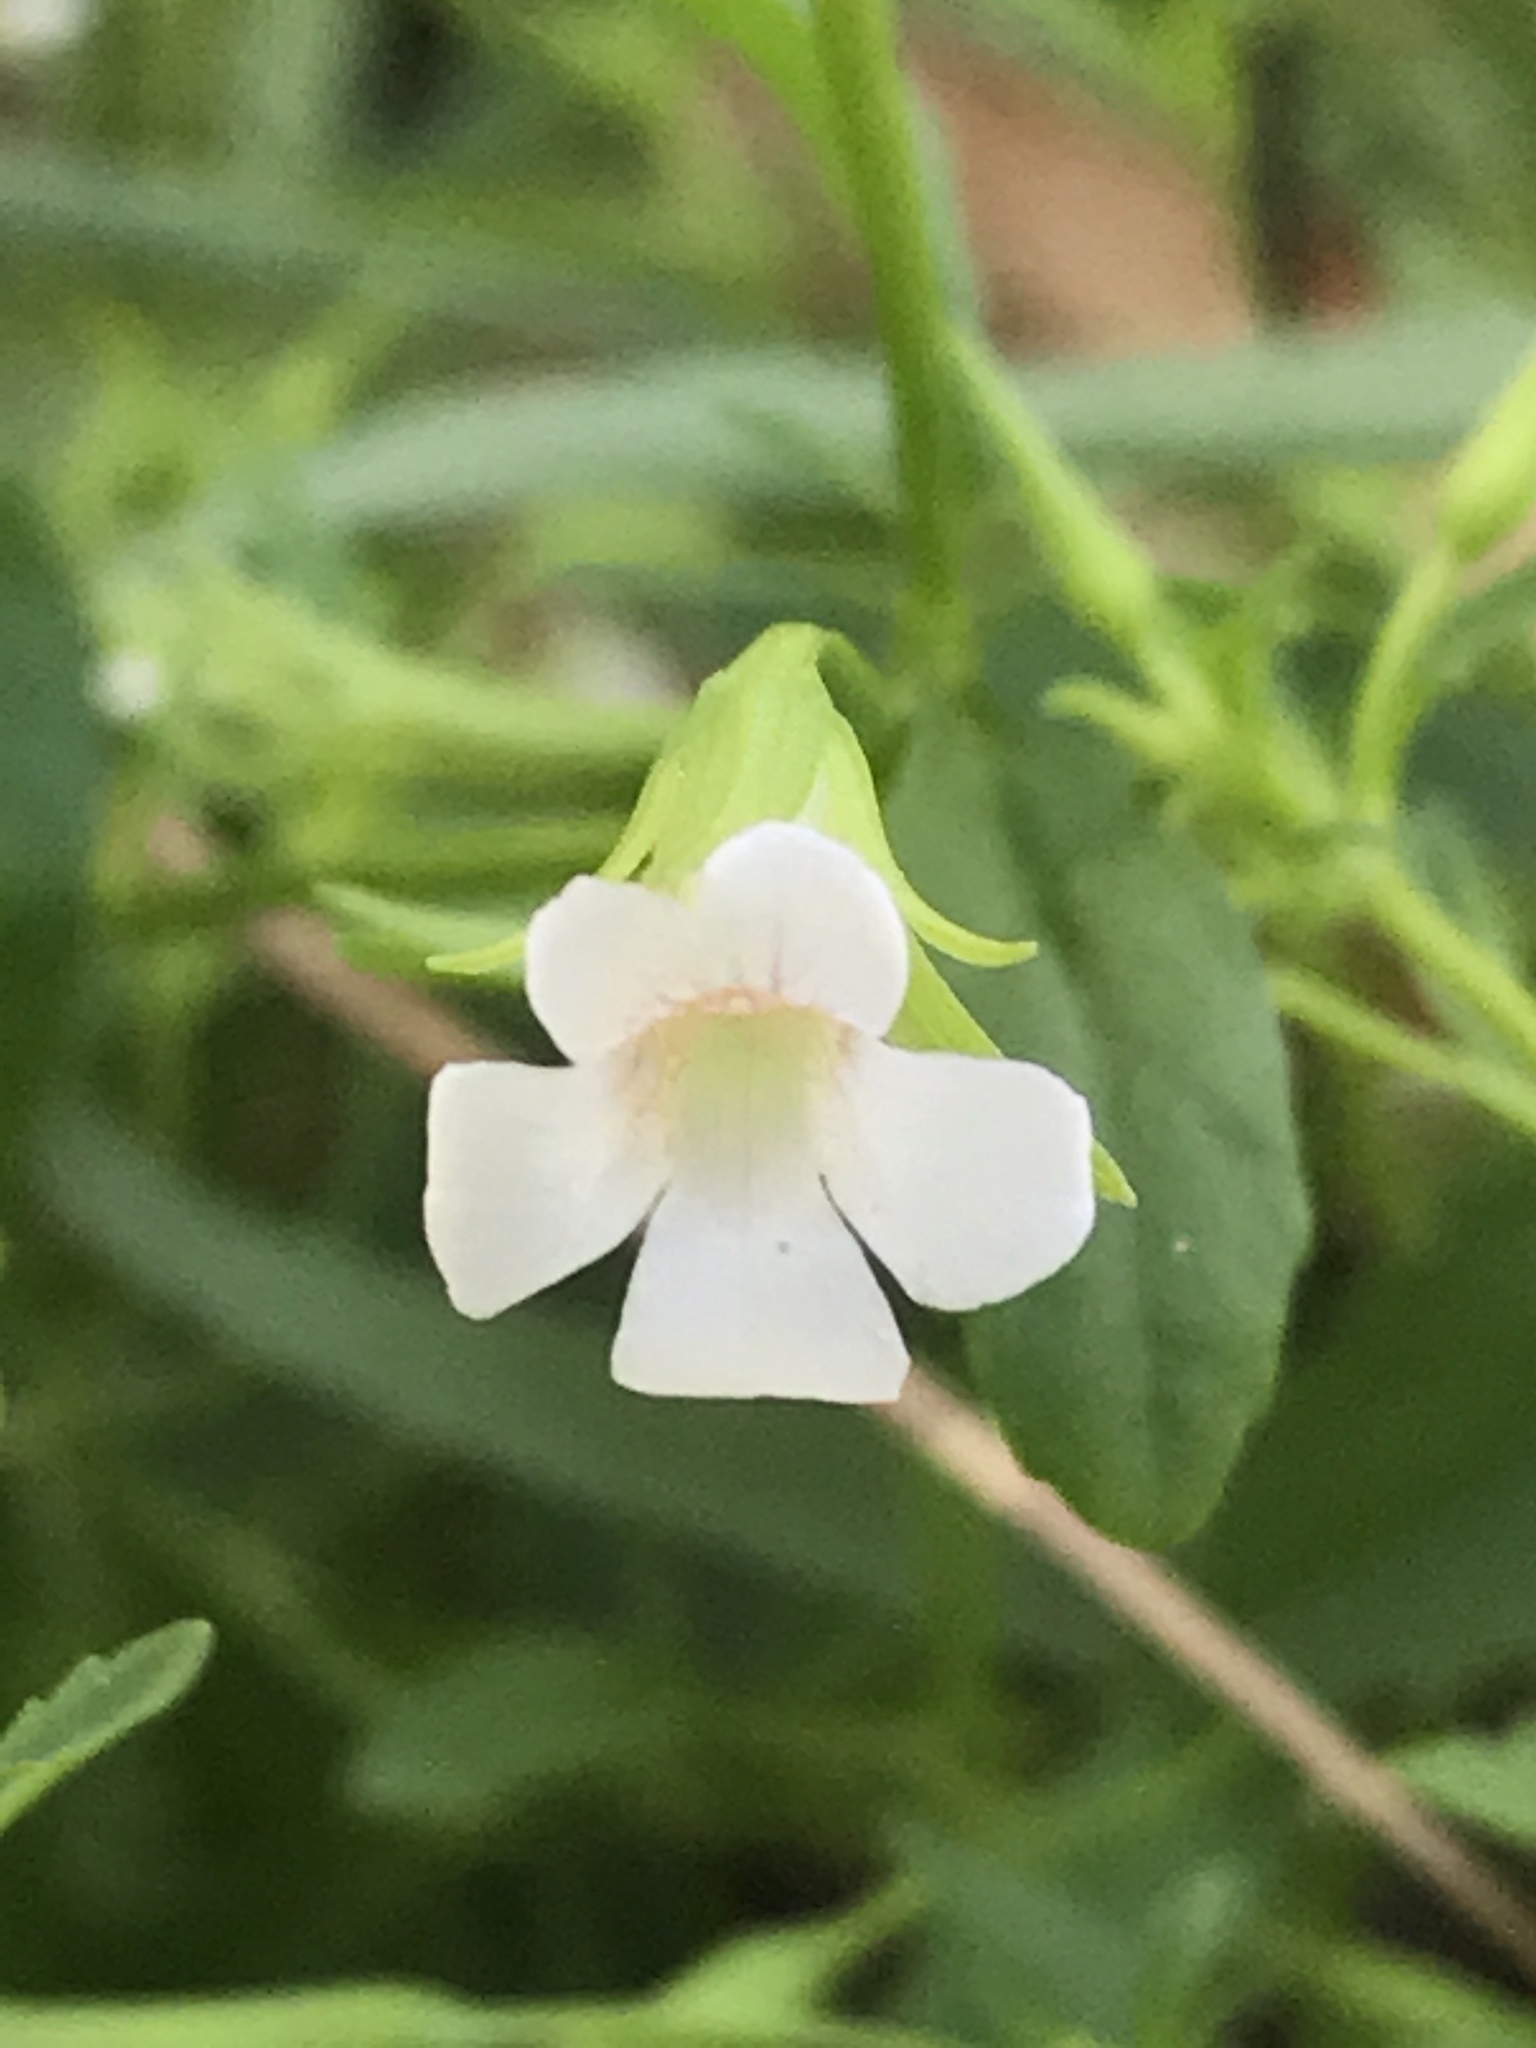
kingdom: Plantae
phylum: Tracheophyta
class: Magnoliopsida
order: Lamiales
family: Plantaginaceae
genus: Gratiola
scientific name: Gratiola neglecta
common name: American hedge-hyssop
